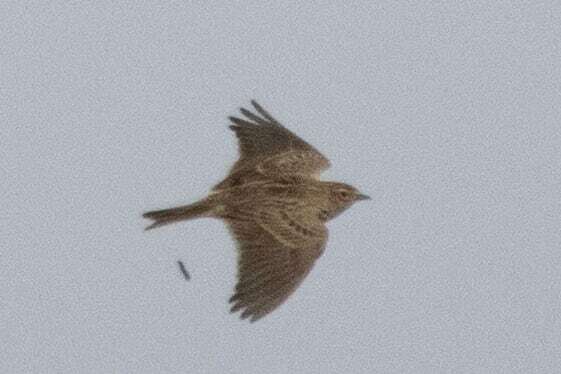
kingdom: Animalia
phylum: Chordata
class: Aves
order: Passeriformes
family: Alaudidae
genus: Alauda
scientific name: Alauda arvensis
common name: Eurasian skylark
